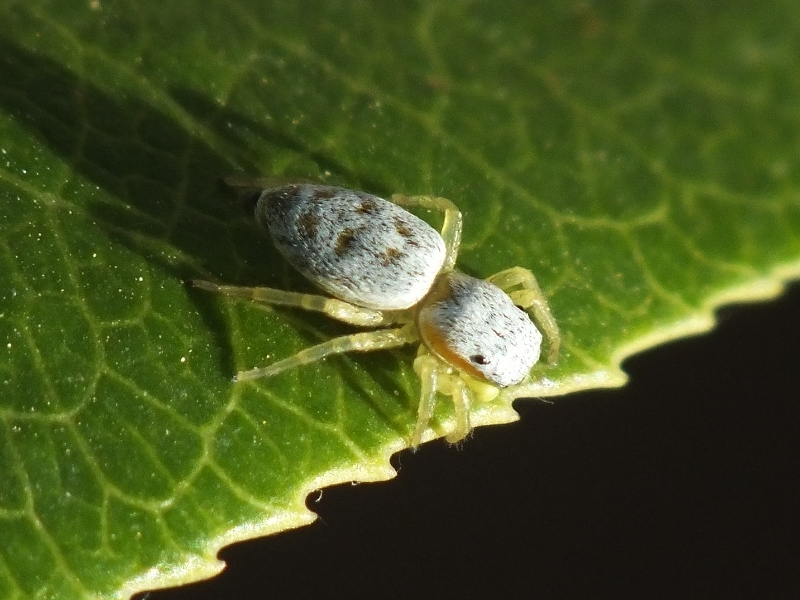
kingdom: Animalia
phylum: Arthropoda
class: Arachnida
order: Araneae
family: Salticidae
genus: Heliophanus
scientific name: Heliophanus simplex
